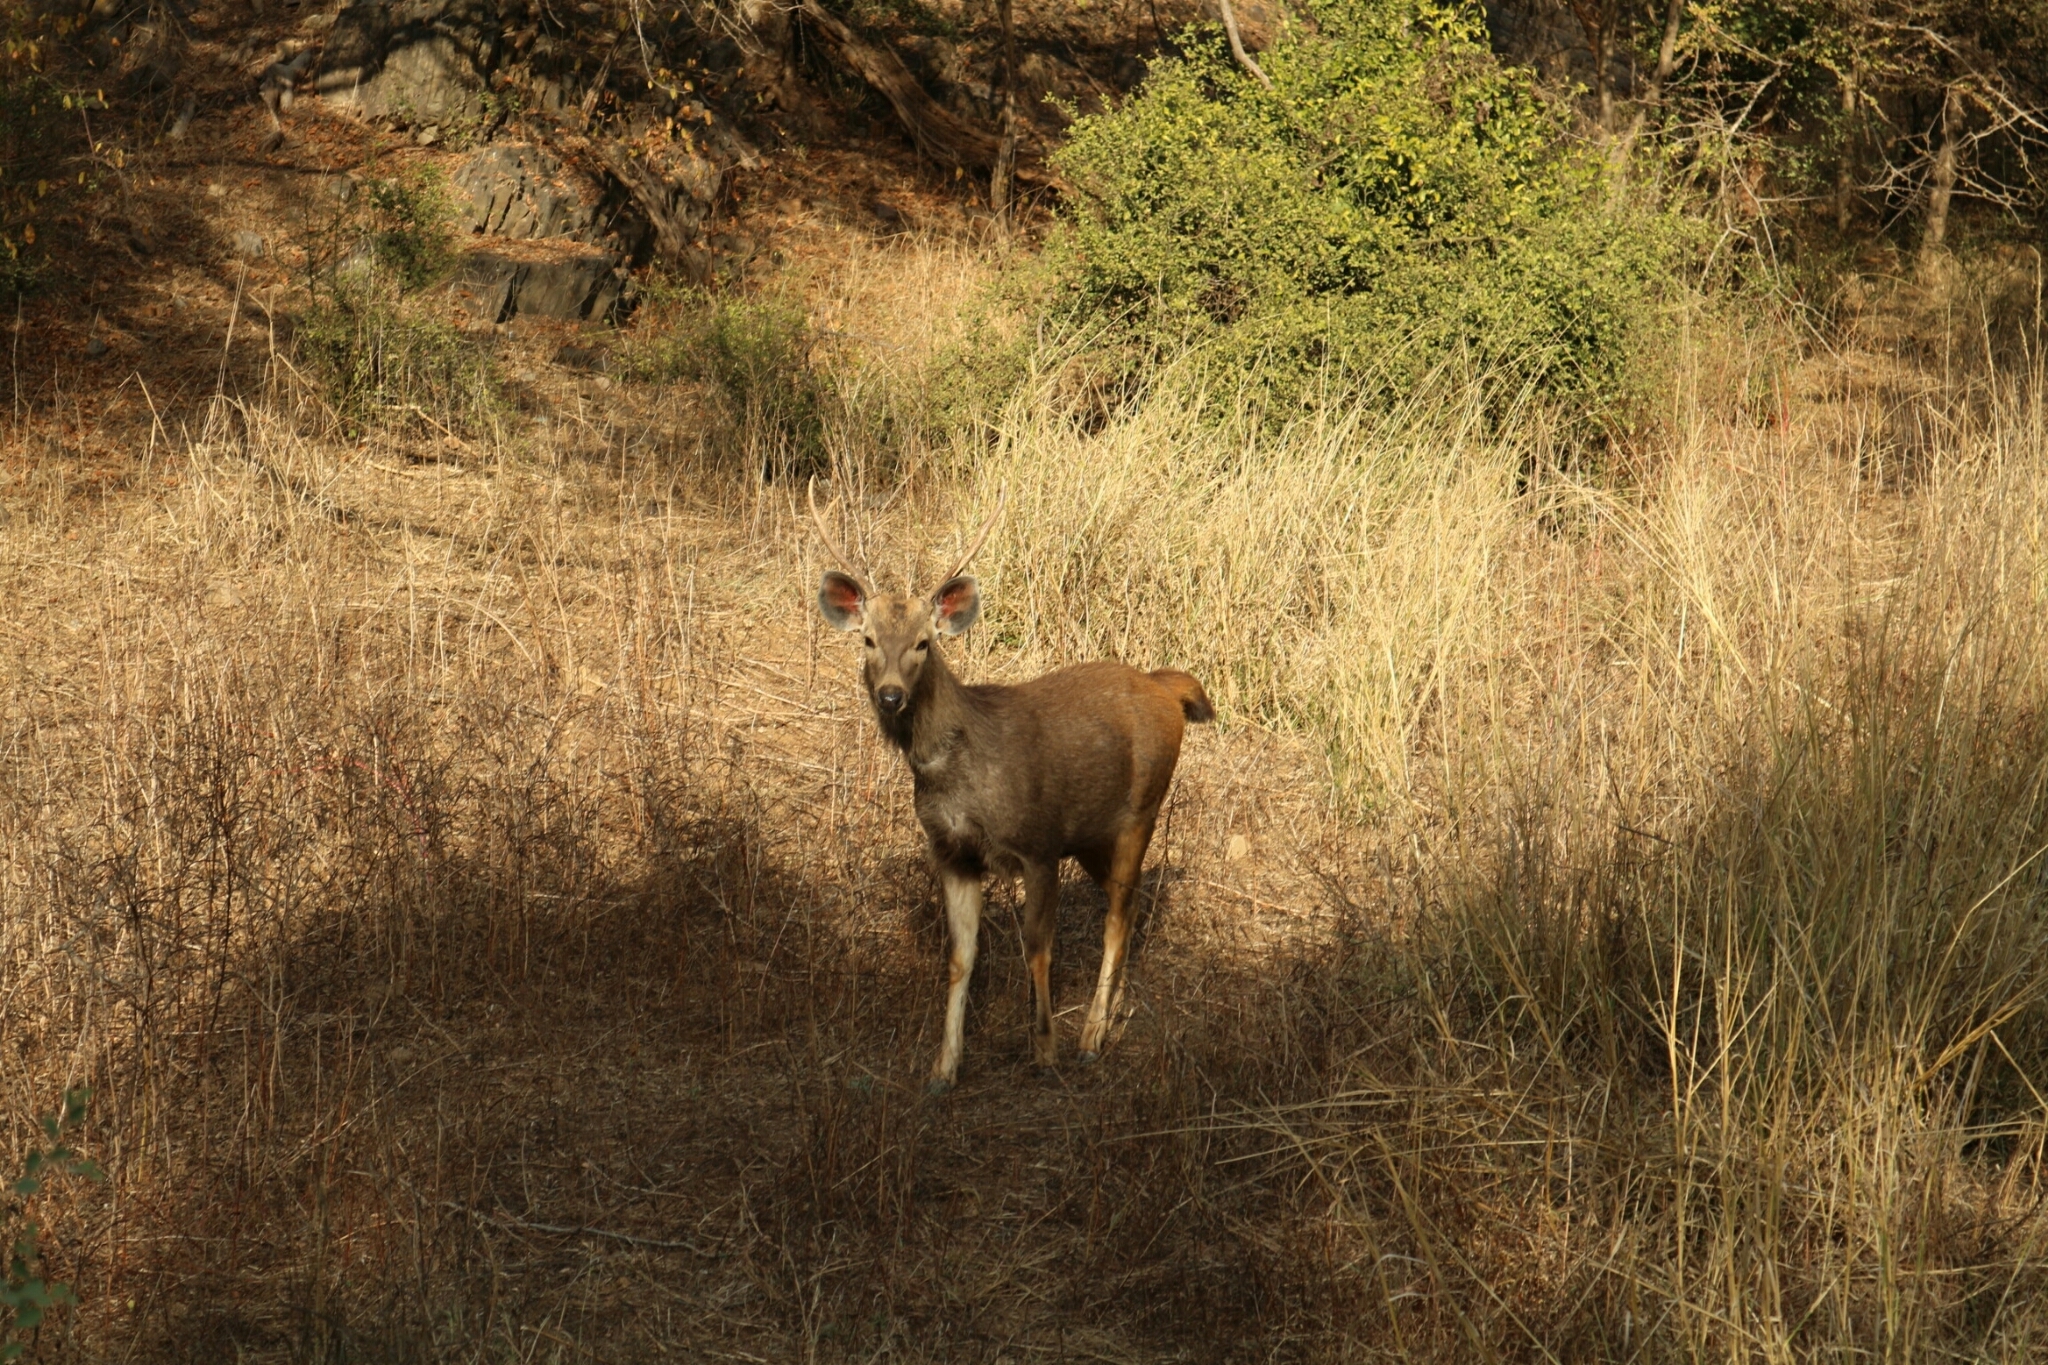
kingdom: Animalia
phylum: Chordata
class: Mammalia
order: Artiodactyla
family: Cervidae
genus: Rusa
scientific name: Rusa unicolor
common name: Sambar
